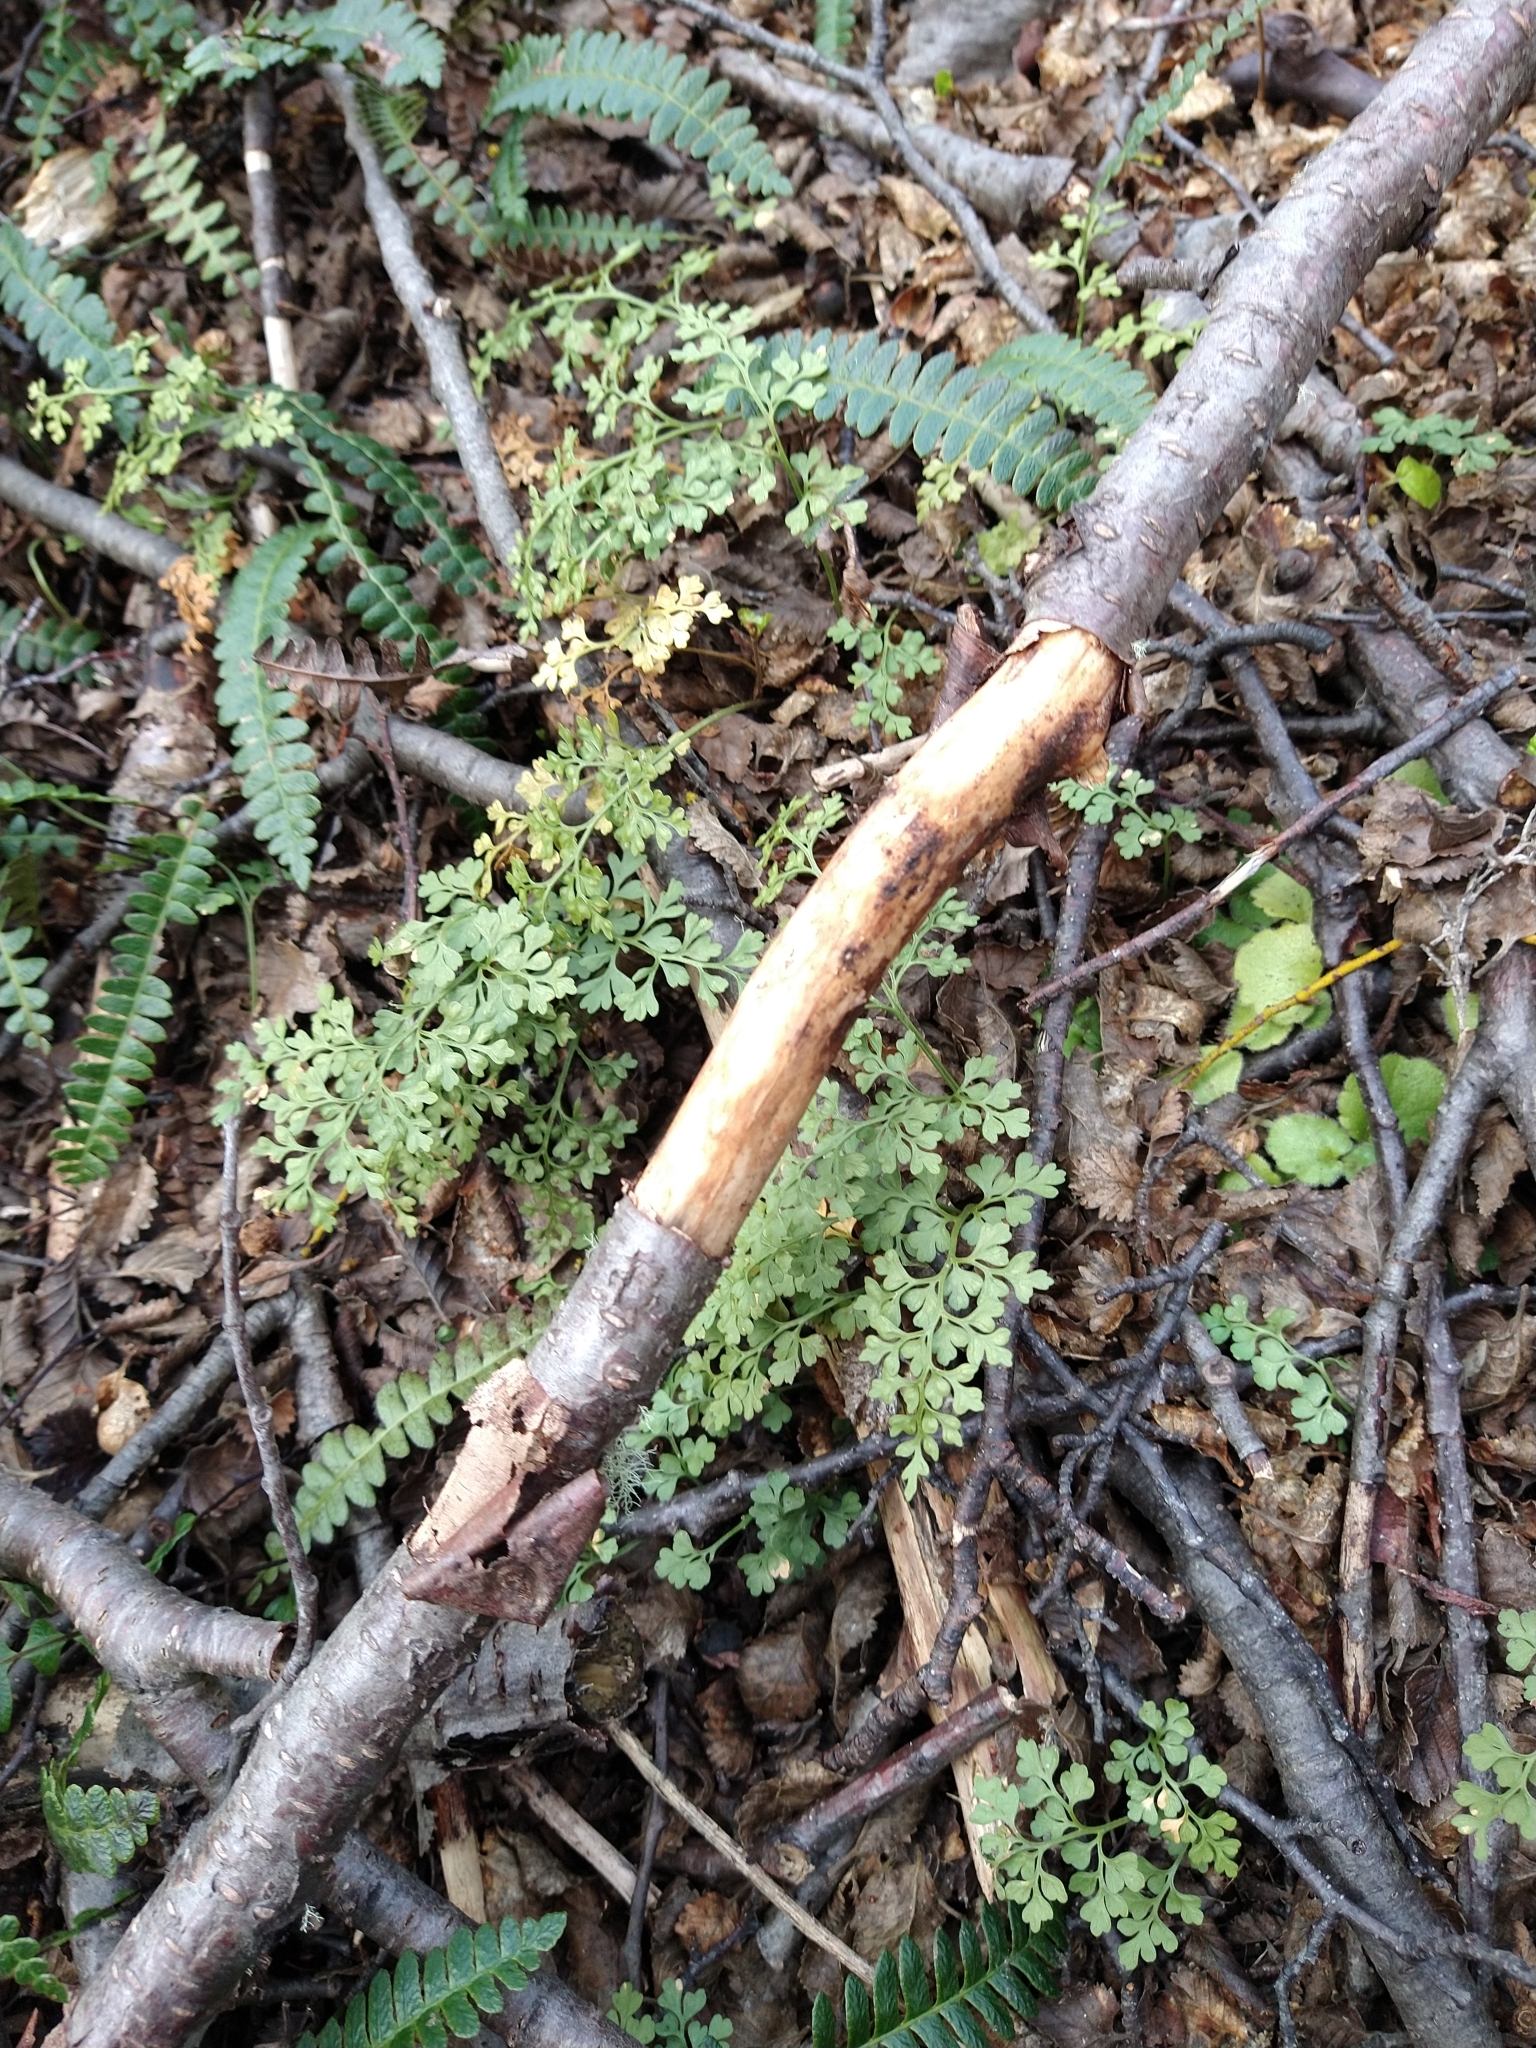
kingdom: Plantae
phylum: Tracheophyta
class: Polypodiopsida
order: Polypodiales
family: Aspleniaceae
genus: Asplenium
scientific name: Asplenium dareoides
